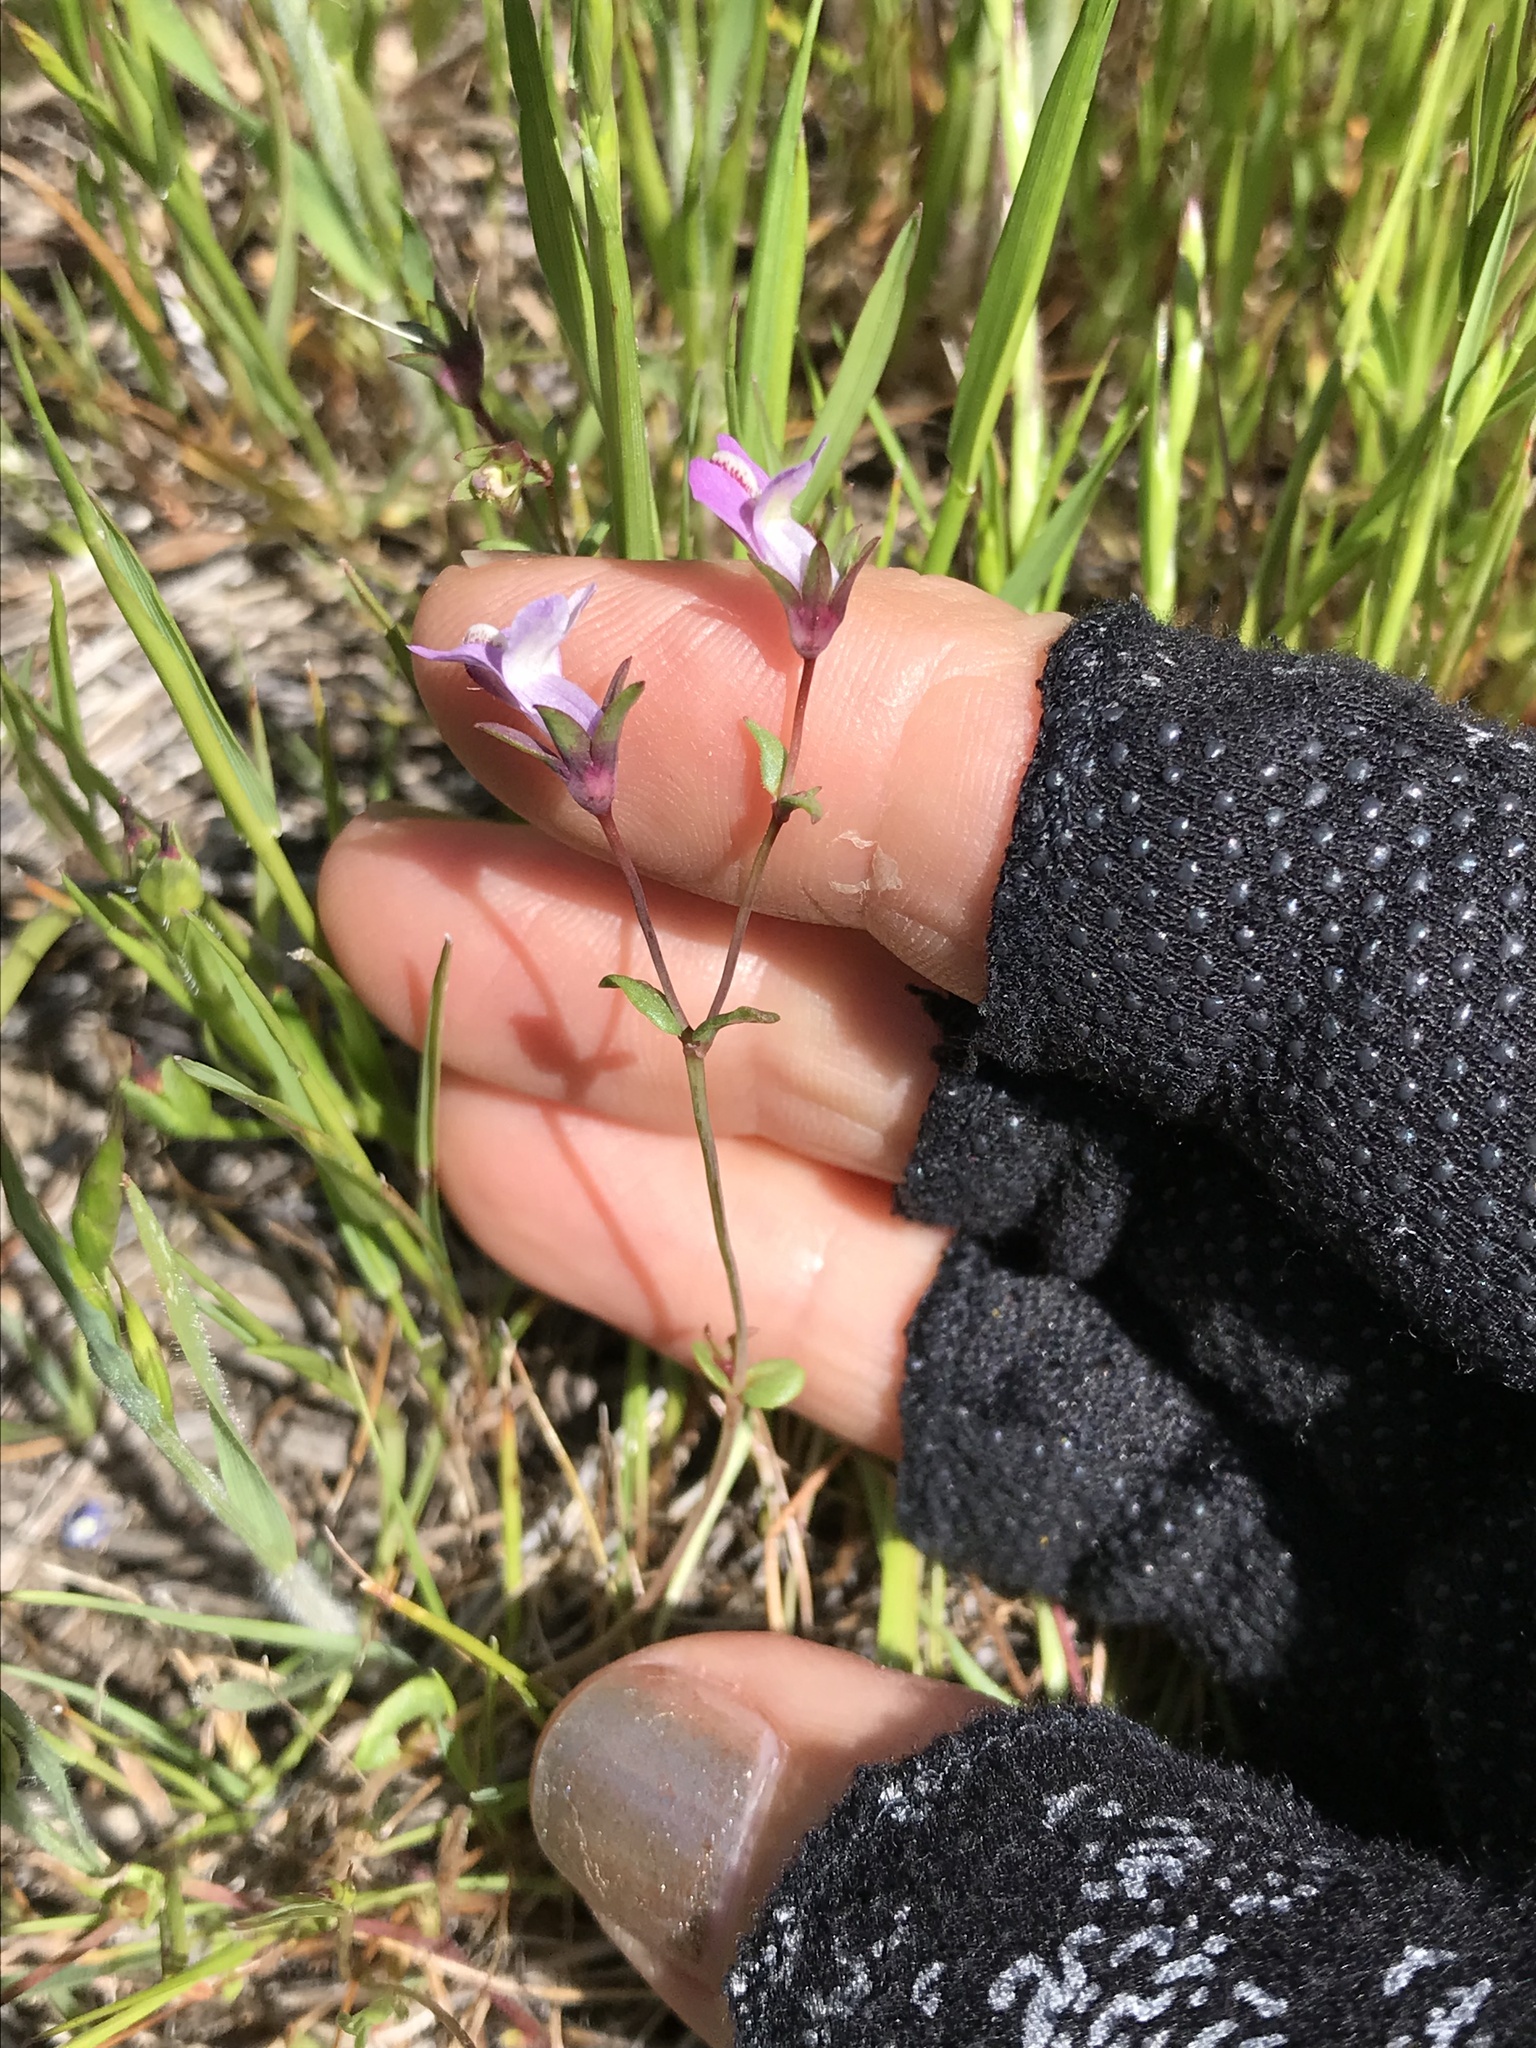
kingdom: Plantae
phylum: Tracheophyta
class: Magnoliopsida
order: Lamiales
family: Plantaginaceae
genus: Collinsia
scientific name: Collinsia sparsiflora
